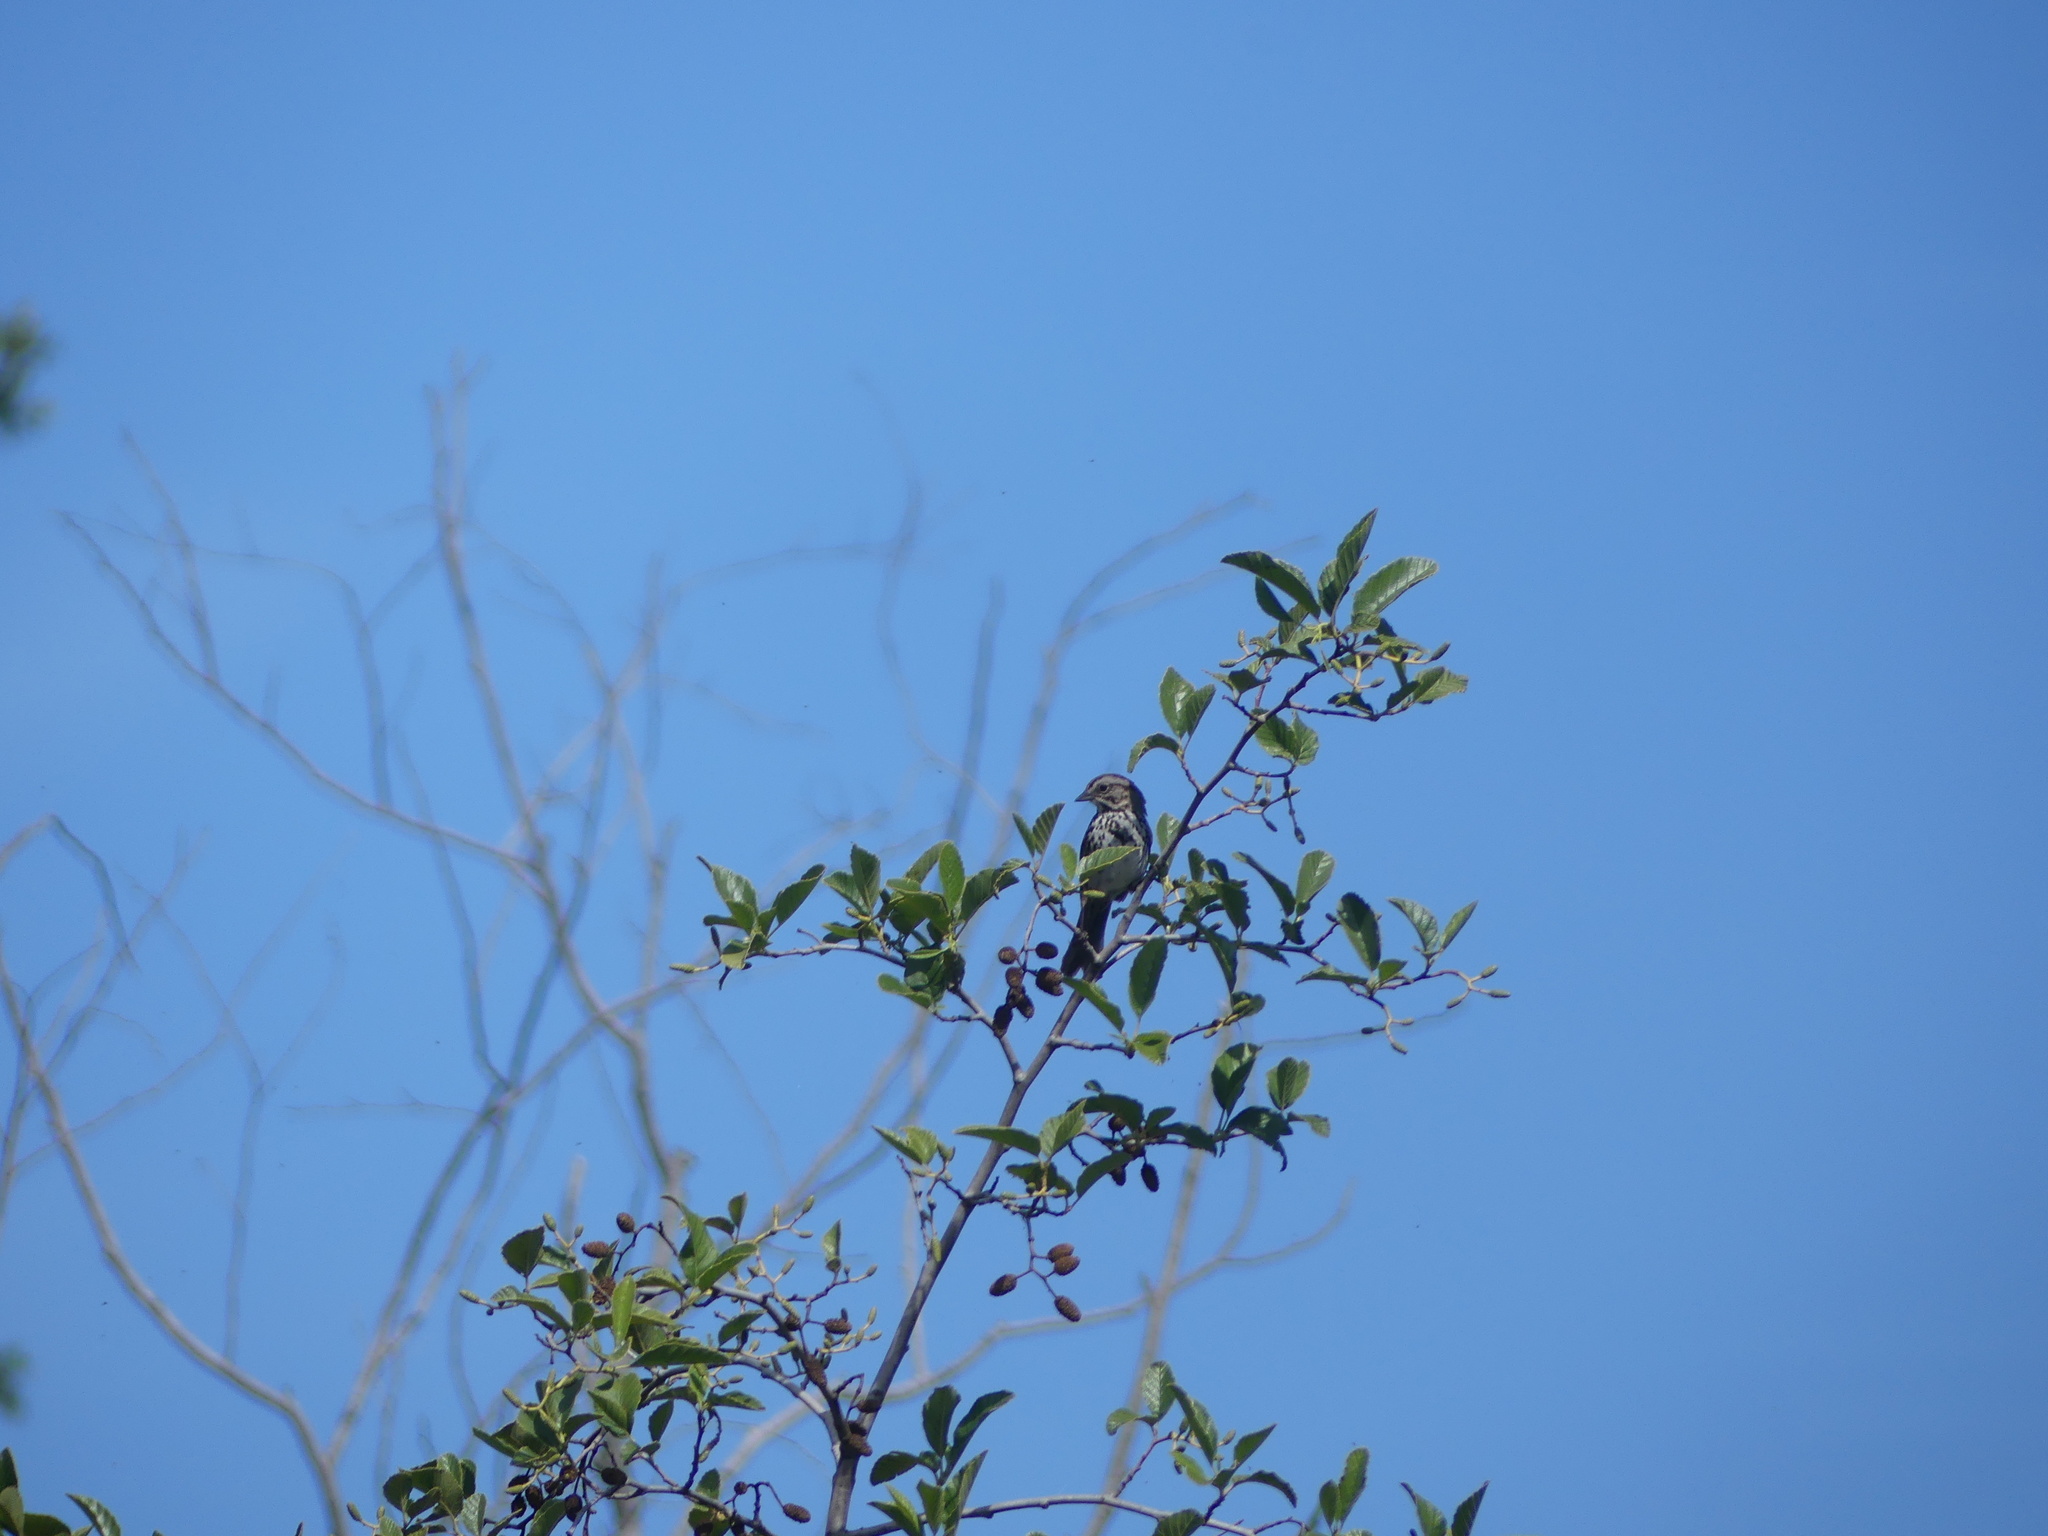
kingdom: Animalia
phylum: Chordata
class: Aves
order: Passeriformes
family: Passerellidae
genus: Melospiza
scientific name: Melospiza melodia
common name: Song sparrow
